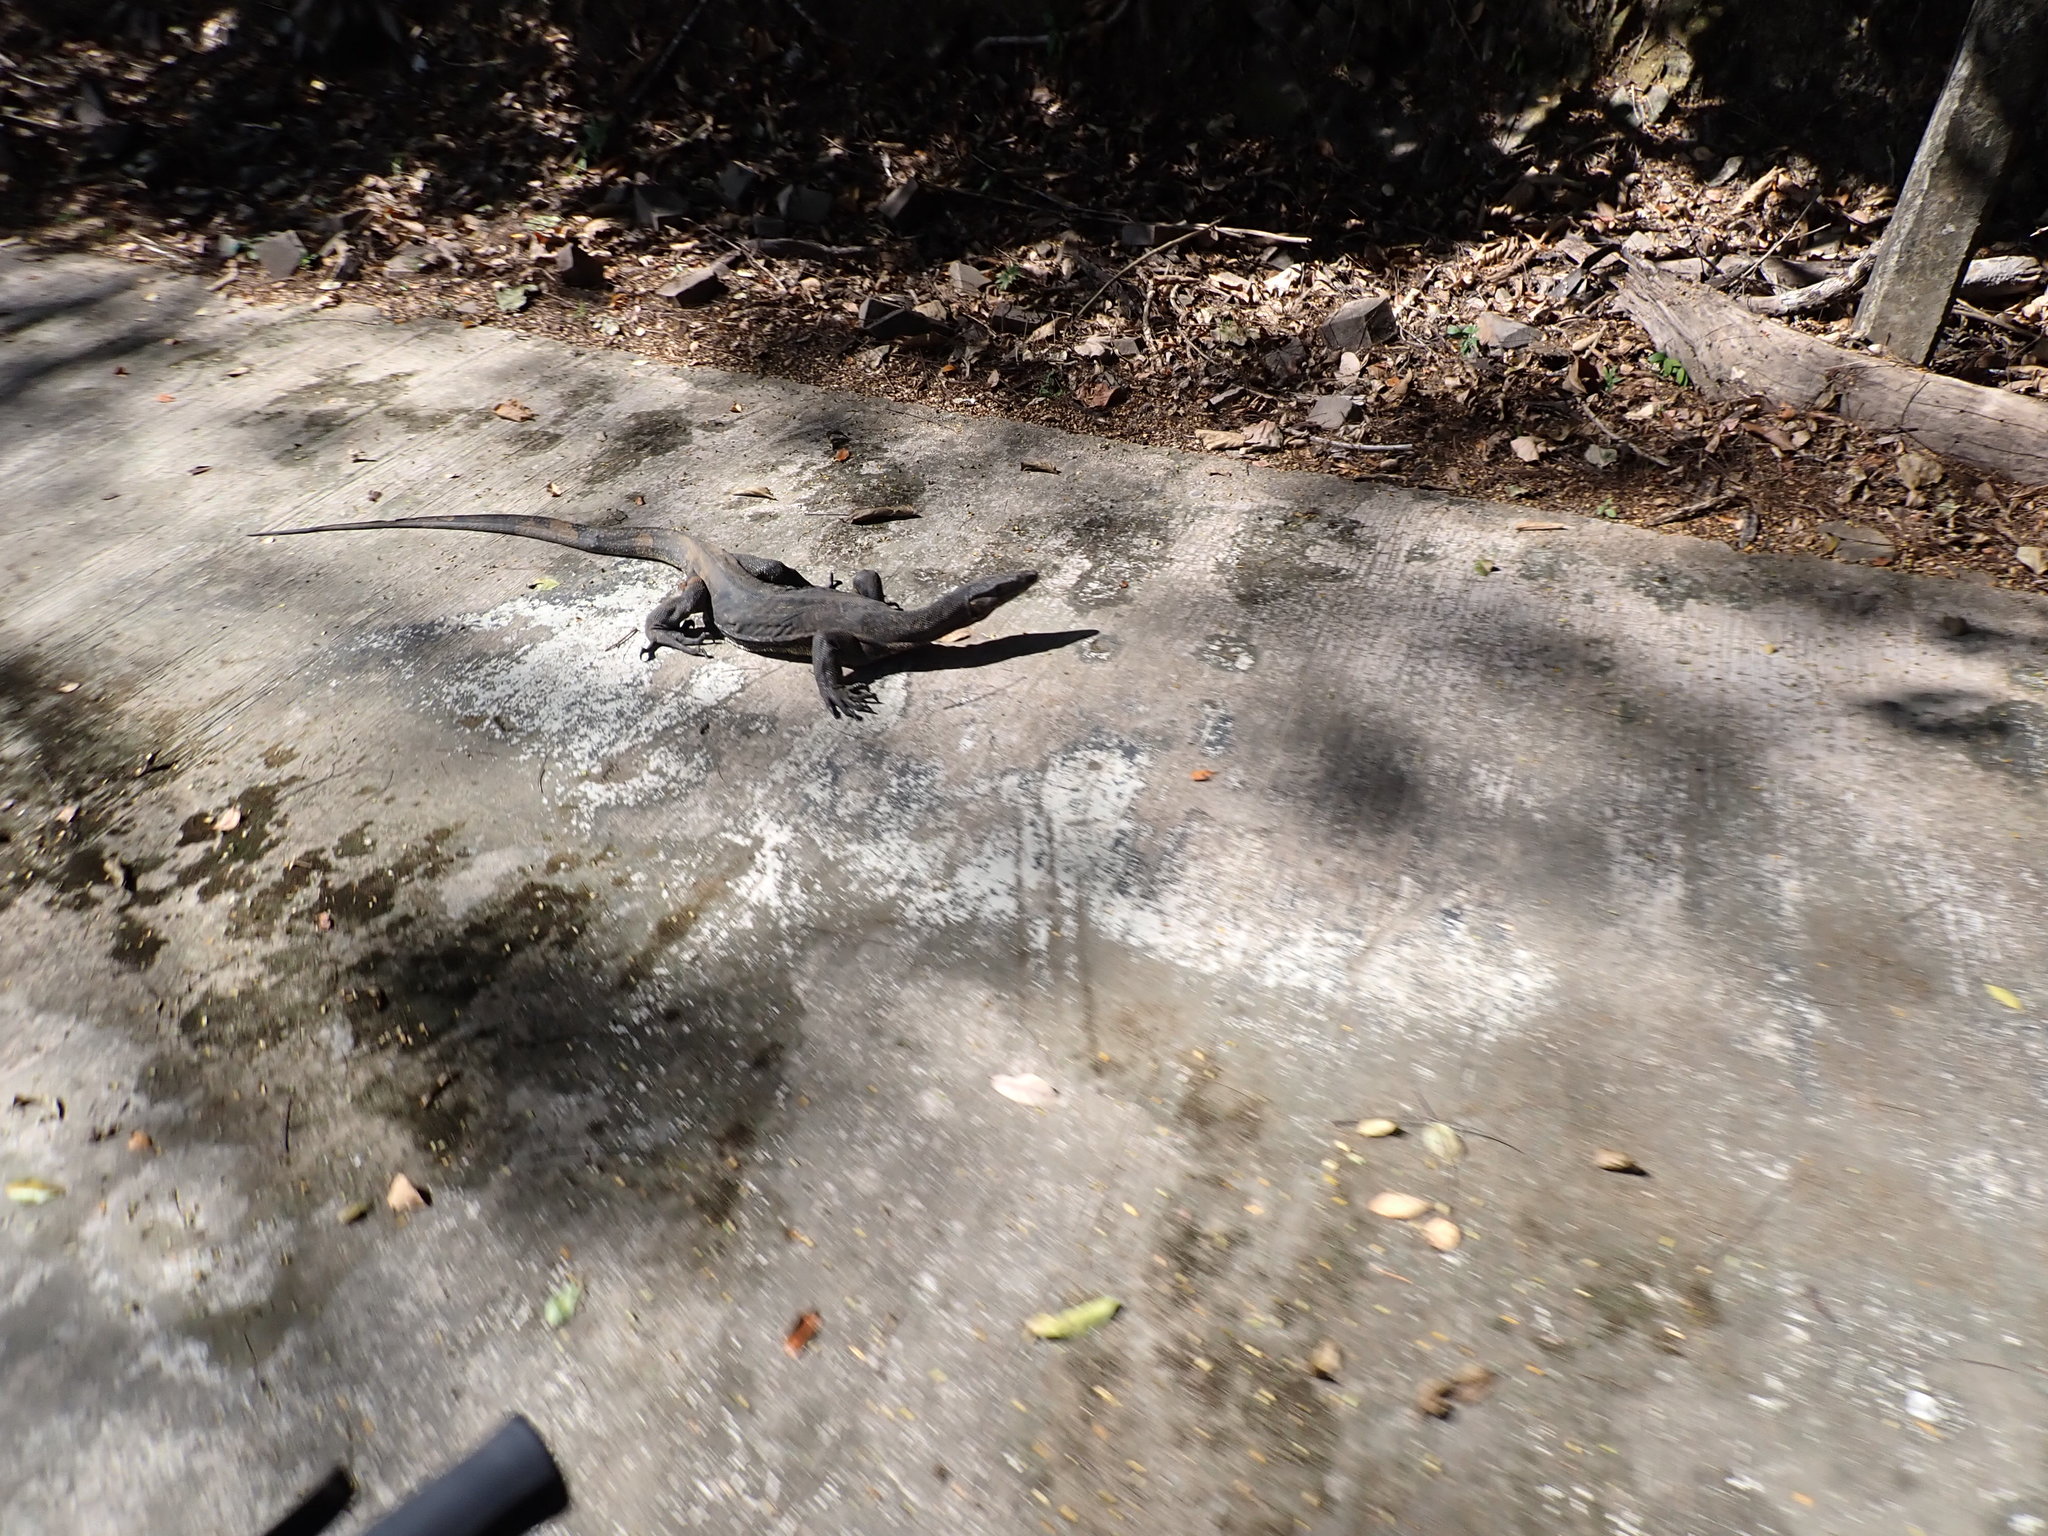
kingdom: Animalia
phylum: Chordata
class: Squamata
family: Varanidae
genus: Varanus
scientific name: Varanus salvator
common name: Common water monitor
